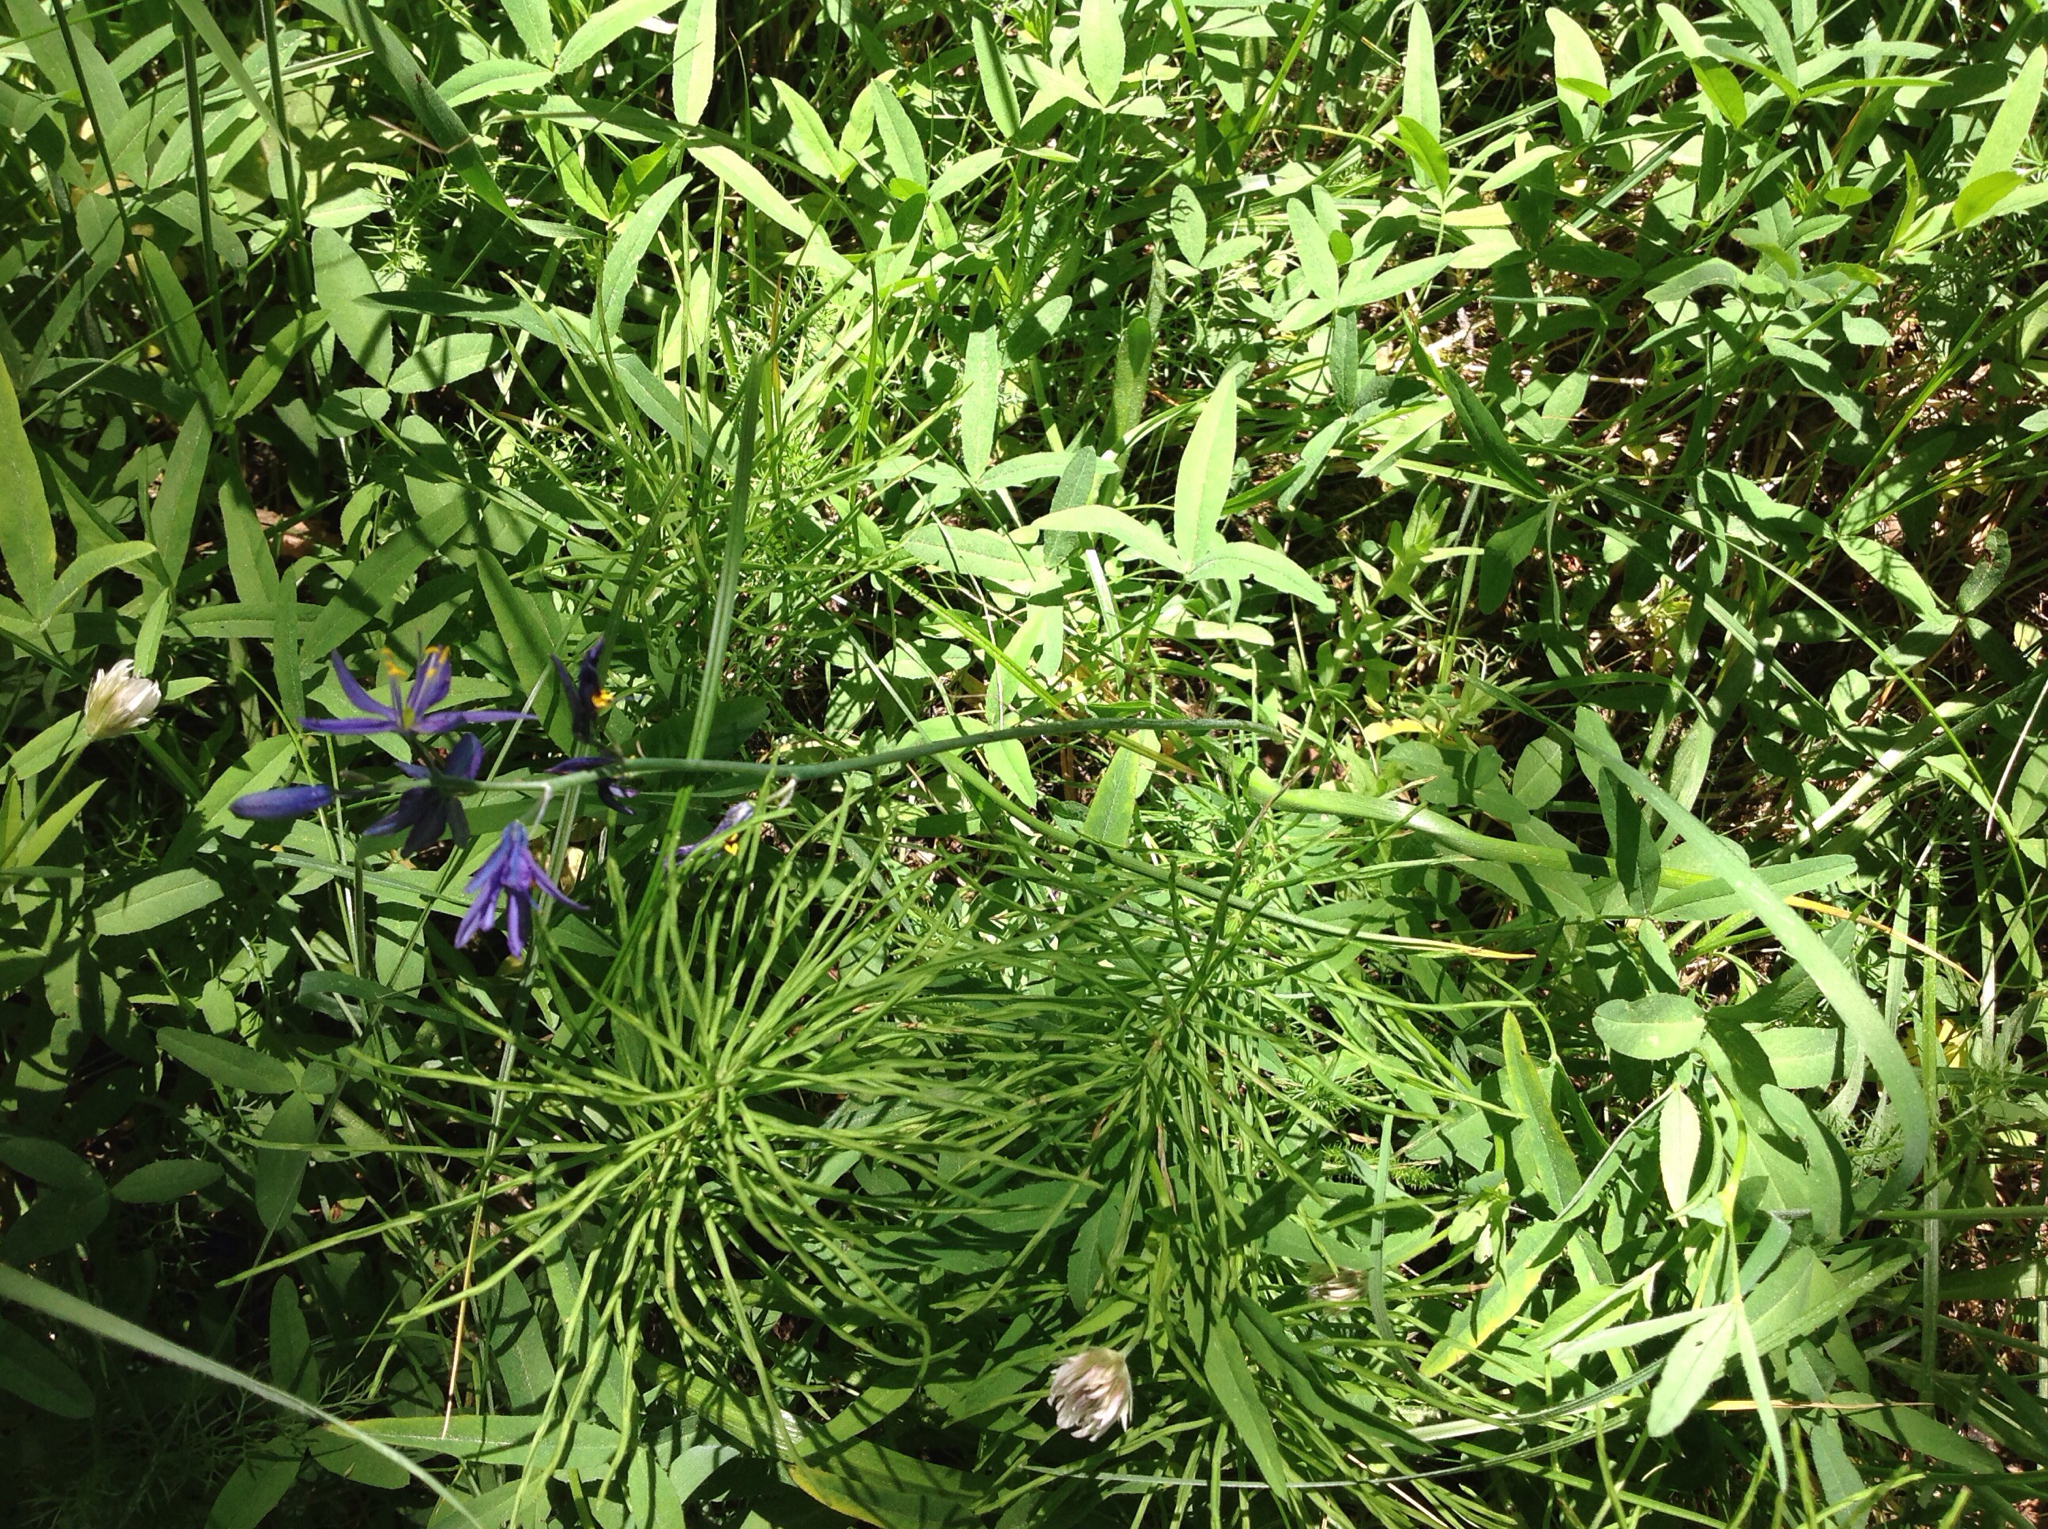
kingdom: Plantae
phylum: Tracheophyta
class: Liliopsida
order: Asparagales
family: Asparagaceae
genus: Camassia
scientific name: Camassia quamash
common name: Common camas
